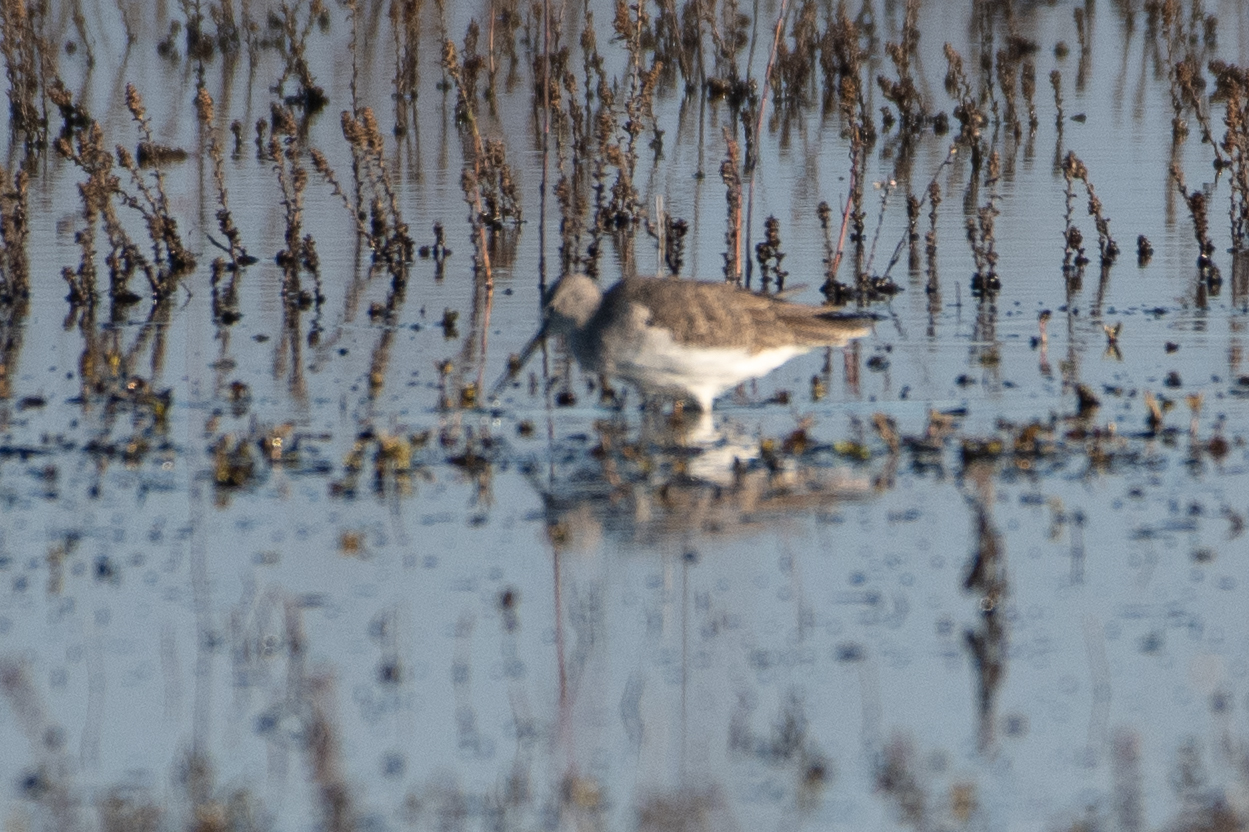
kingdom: Animalia
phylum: Chordata
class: Aves
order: Charadriiformes
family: Scolopacidae
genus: Tringa
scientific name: Tringa melanoleuca
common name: Greater yellowlegs
